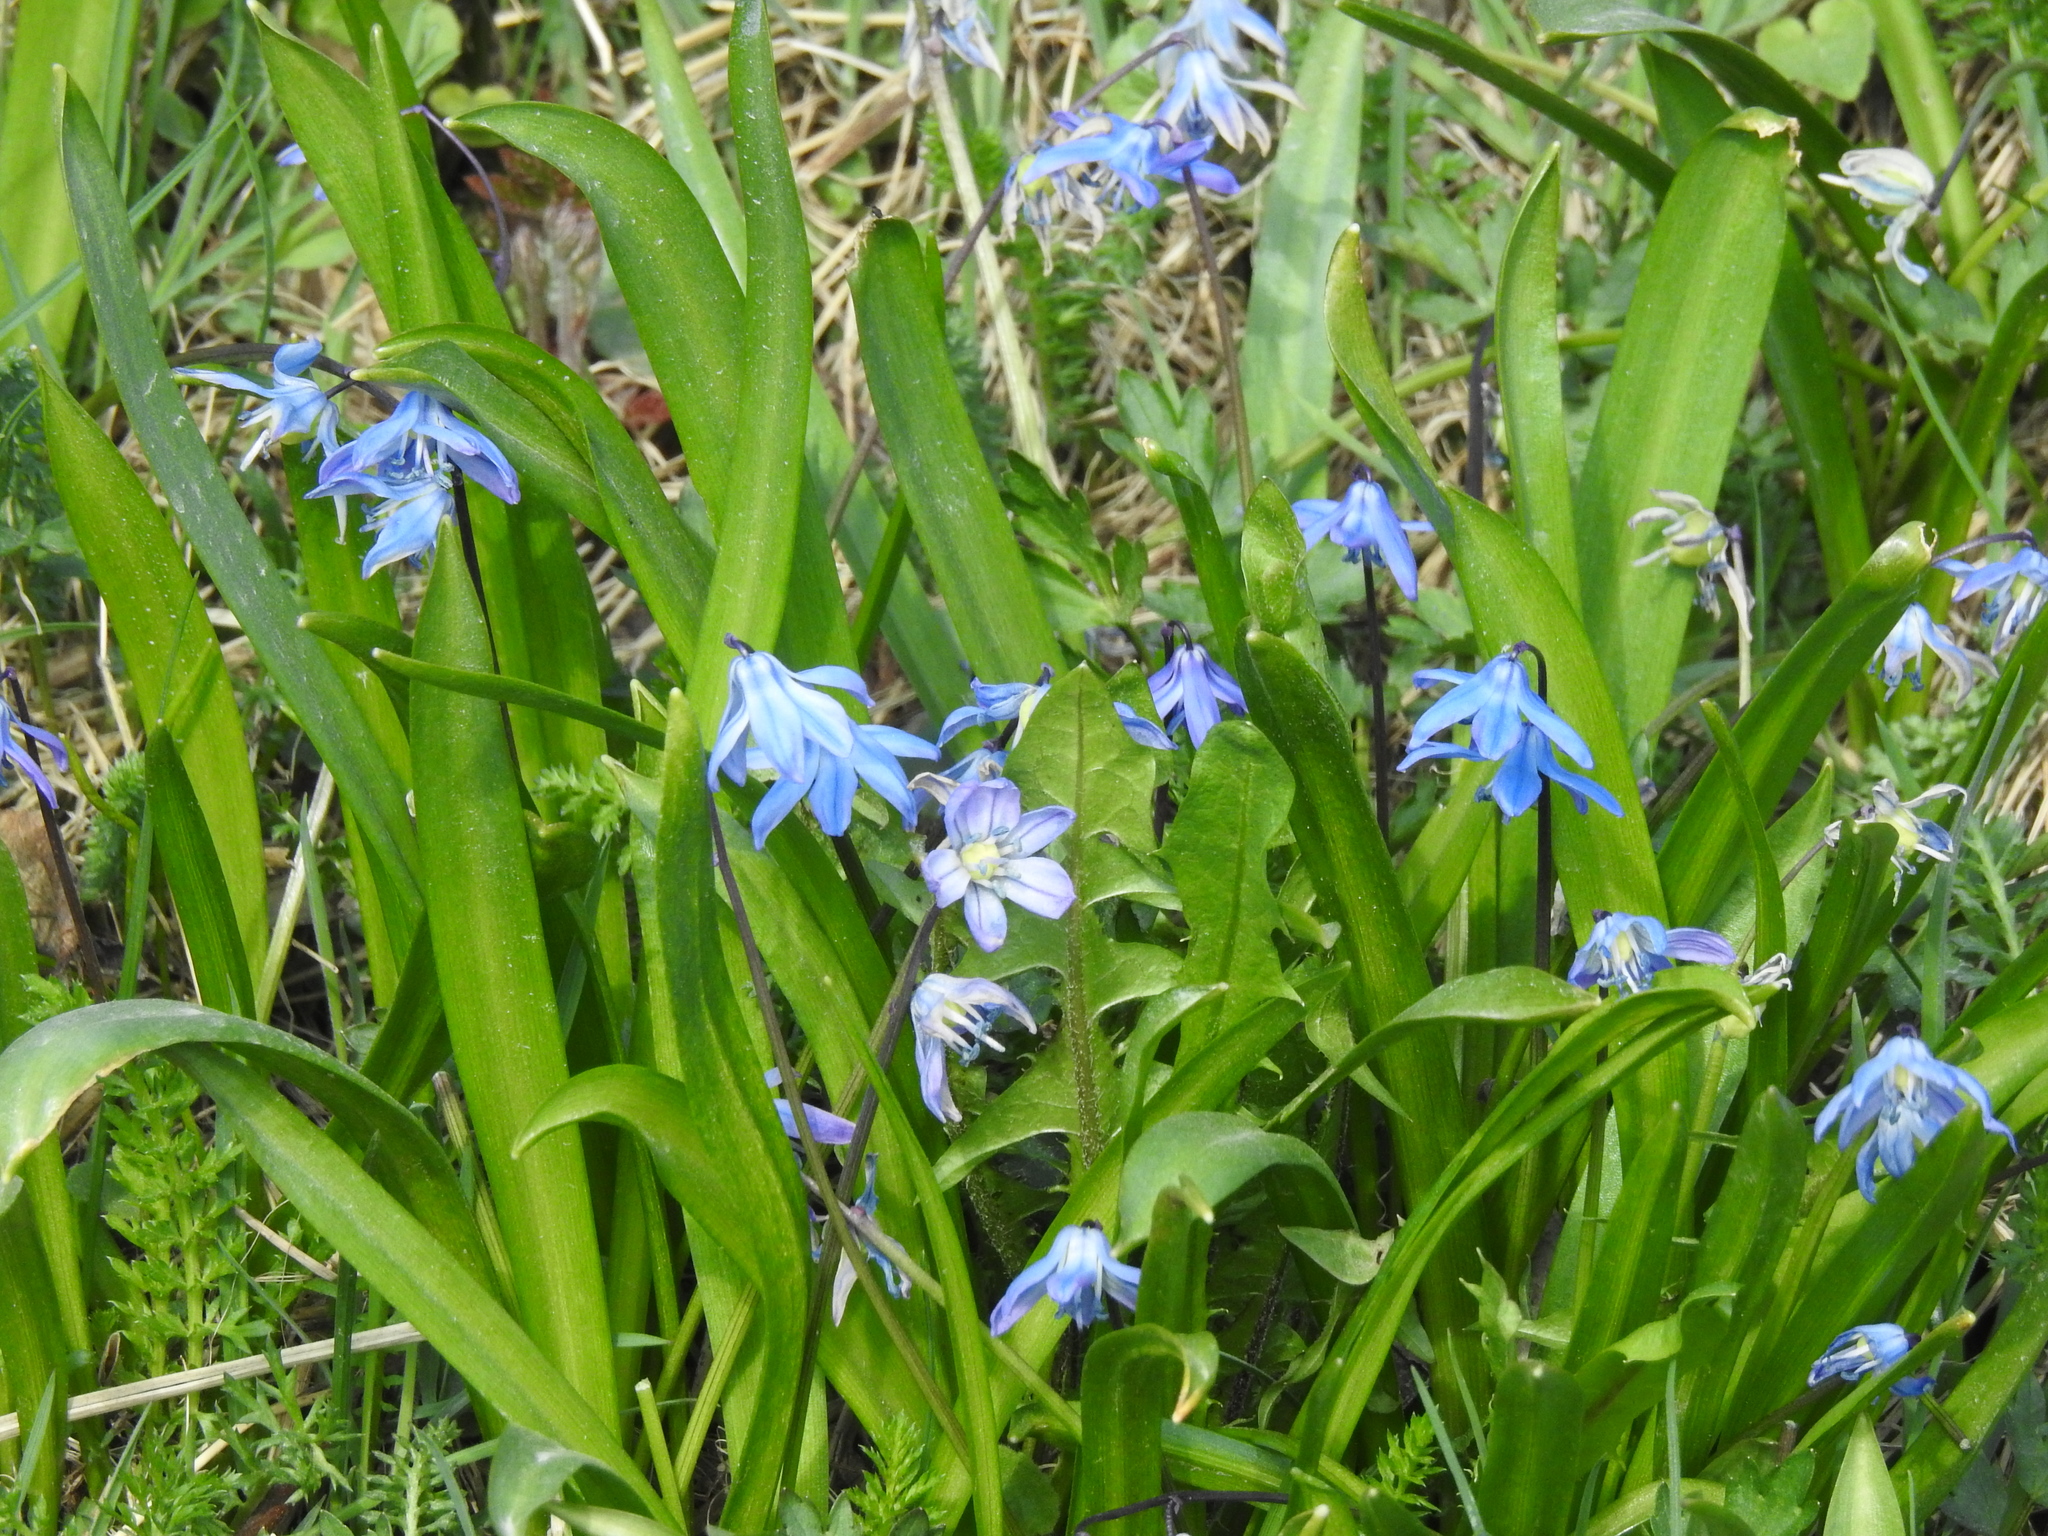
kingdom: Plantae
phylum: Tracheophyta
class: Liliopsida
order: Asparagales
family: Asparagaceae
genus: Scilla
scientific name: Scilla siberica
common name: Siberian squill
